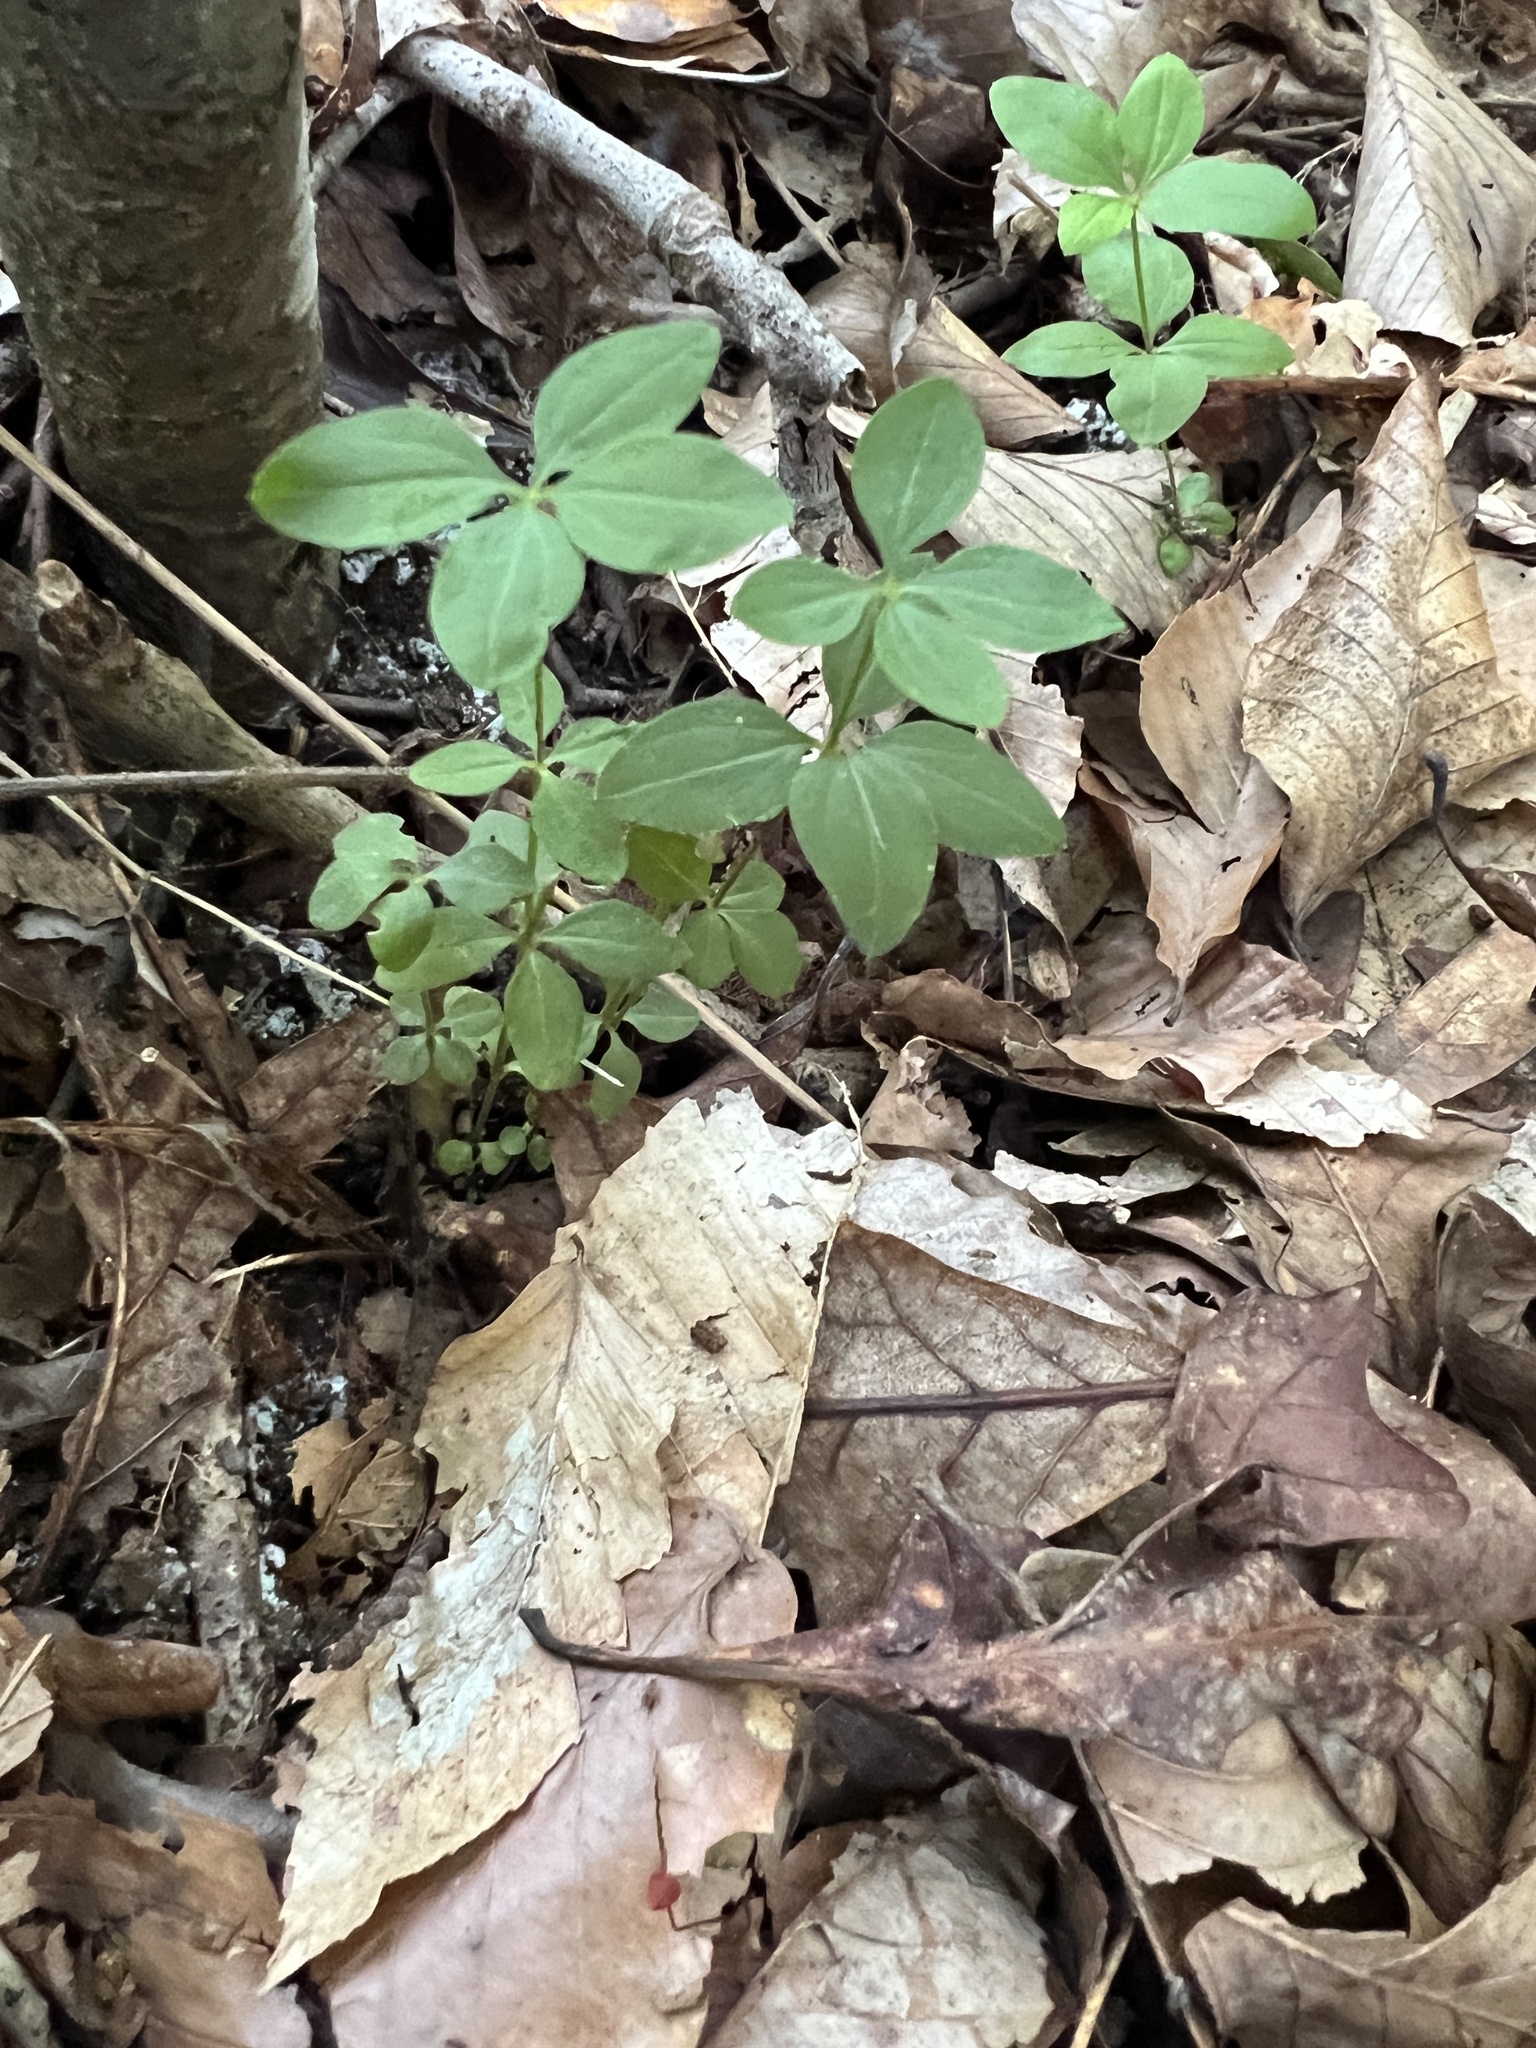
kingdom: Plantae
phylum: Tracheophyta
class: Magnoliopsida
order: Gentianales
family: Rubiaceae
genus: Galium
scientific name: Galium circaezans
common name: Forest bedstraw
